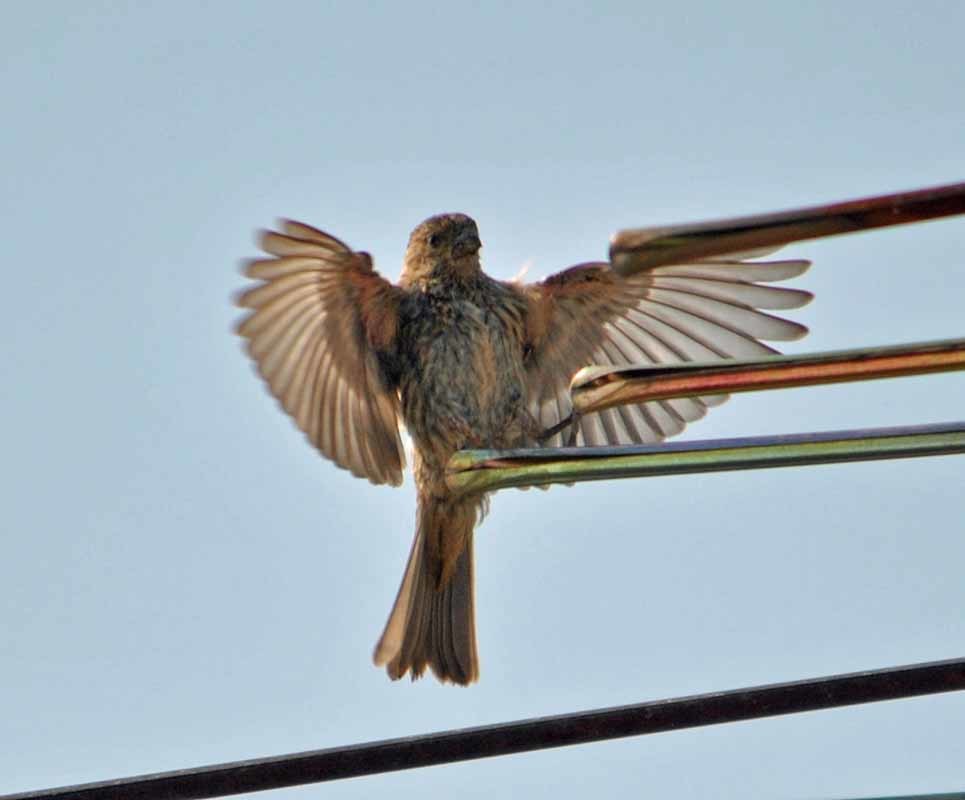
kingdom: Animalia
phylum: Chordata
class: Aves
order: Passeriformes
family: Fringillidae
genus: Haemorhous
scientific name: Haemorhous mexicanus
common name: House finch
